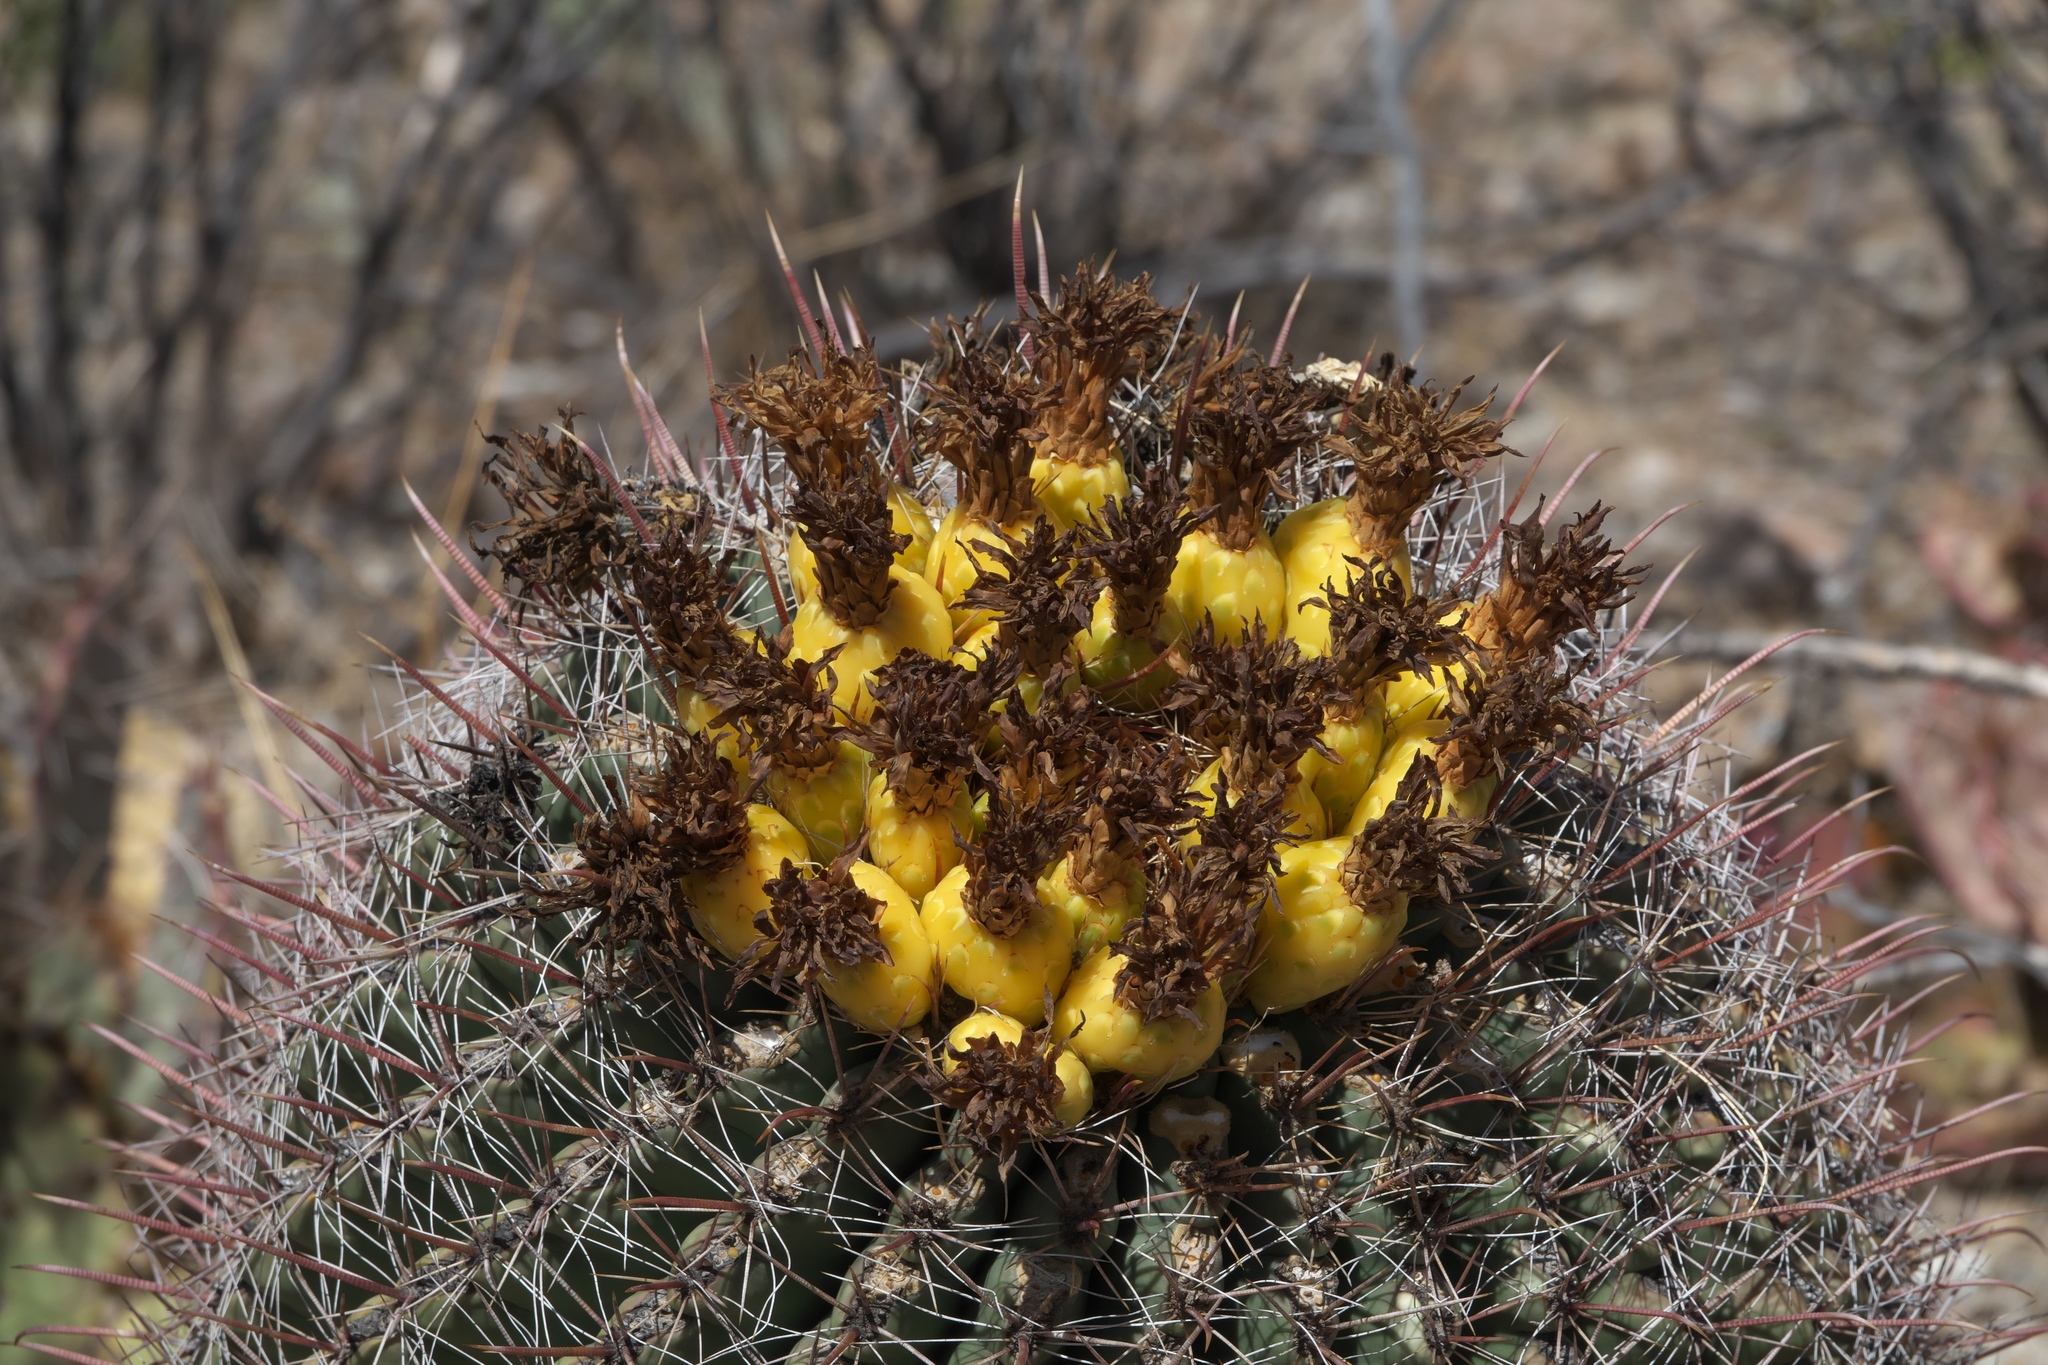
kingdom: Plantae
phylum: Tracheophyta
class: Magnoliopsida
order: Caryophyllales
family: Cactaceae
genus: Ferocactus
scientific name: Ferocactus wislizeni
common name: Candy barrel cactus
